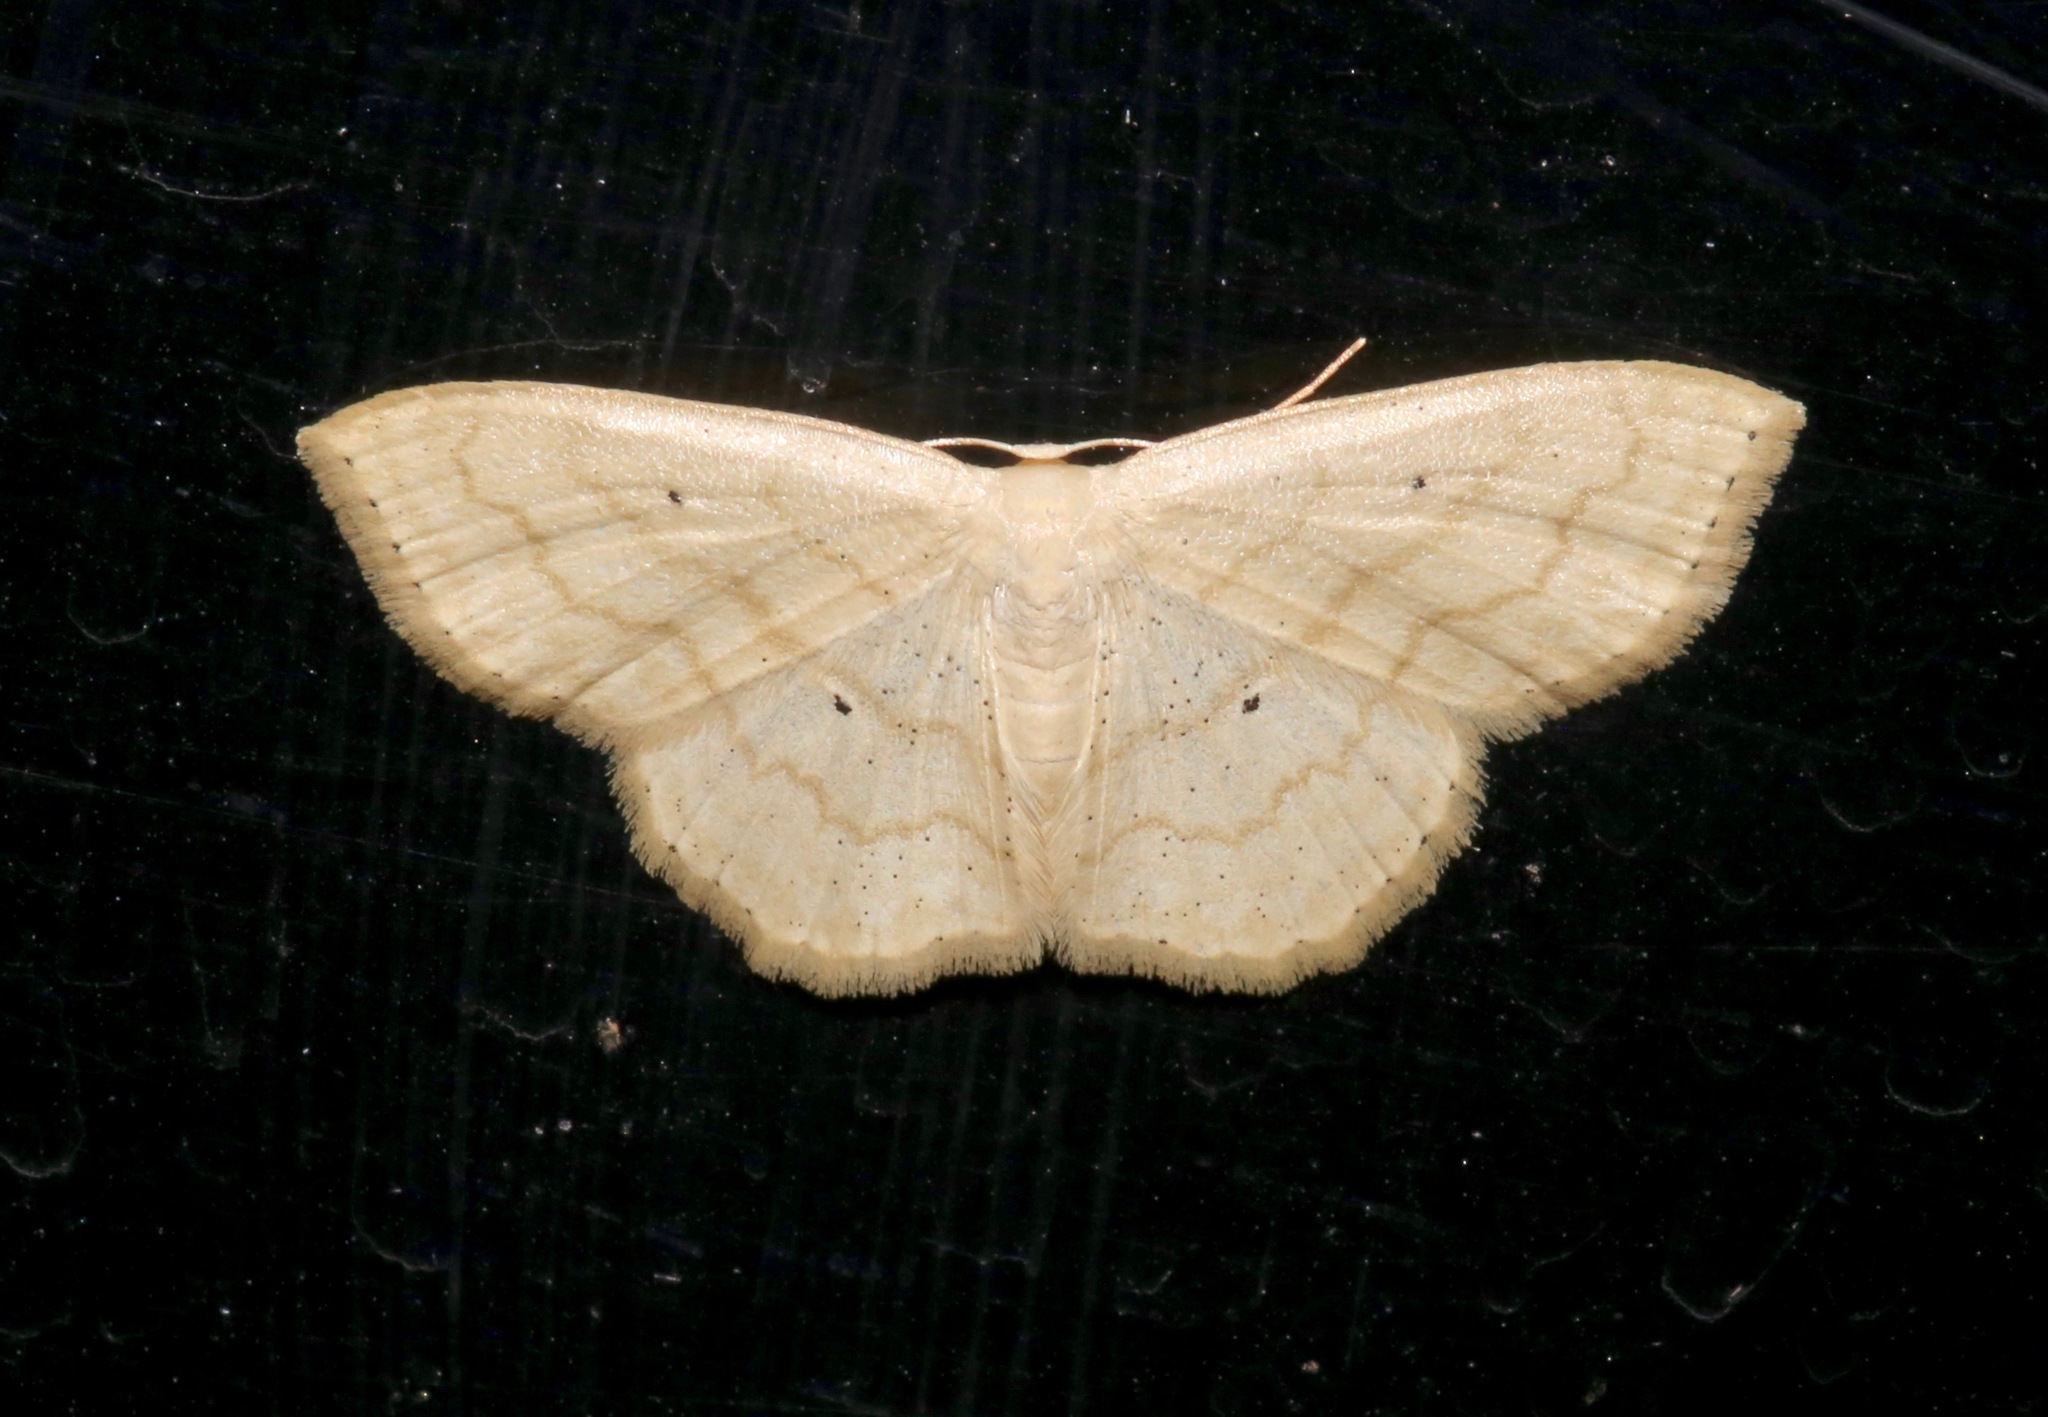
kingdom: Animalia
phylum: Arthropoda
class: Insecta
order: Lepidoptera
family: Geometridae
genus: Scopula
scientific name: Scopula limboundata
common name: Large lace border
